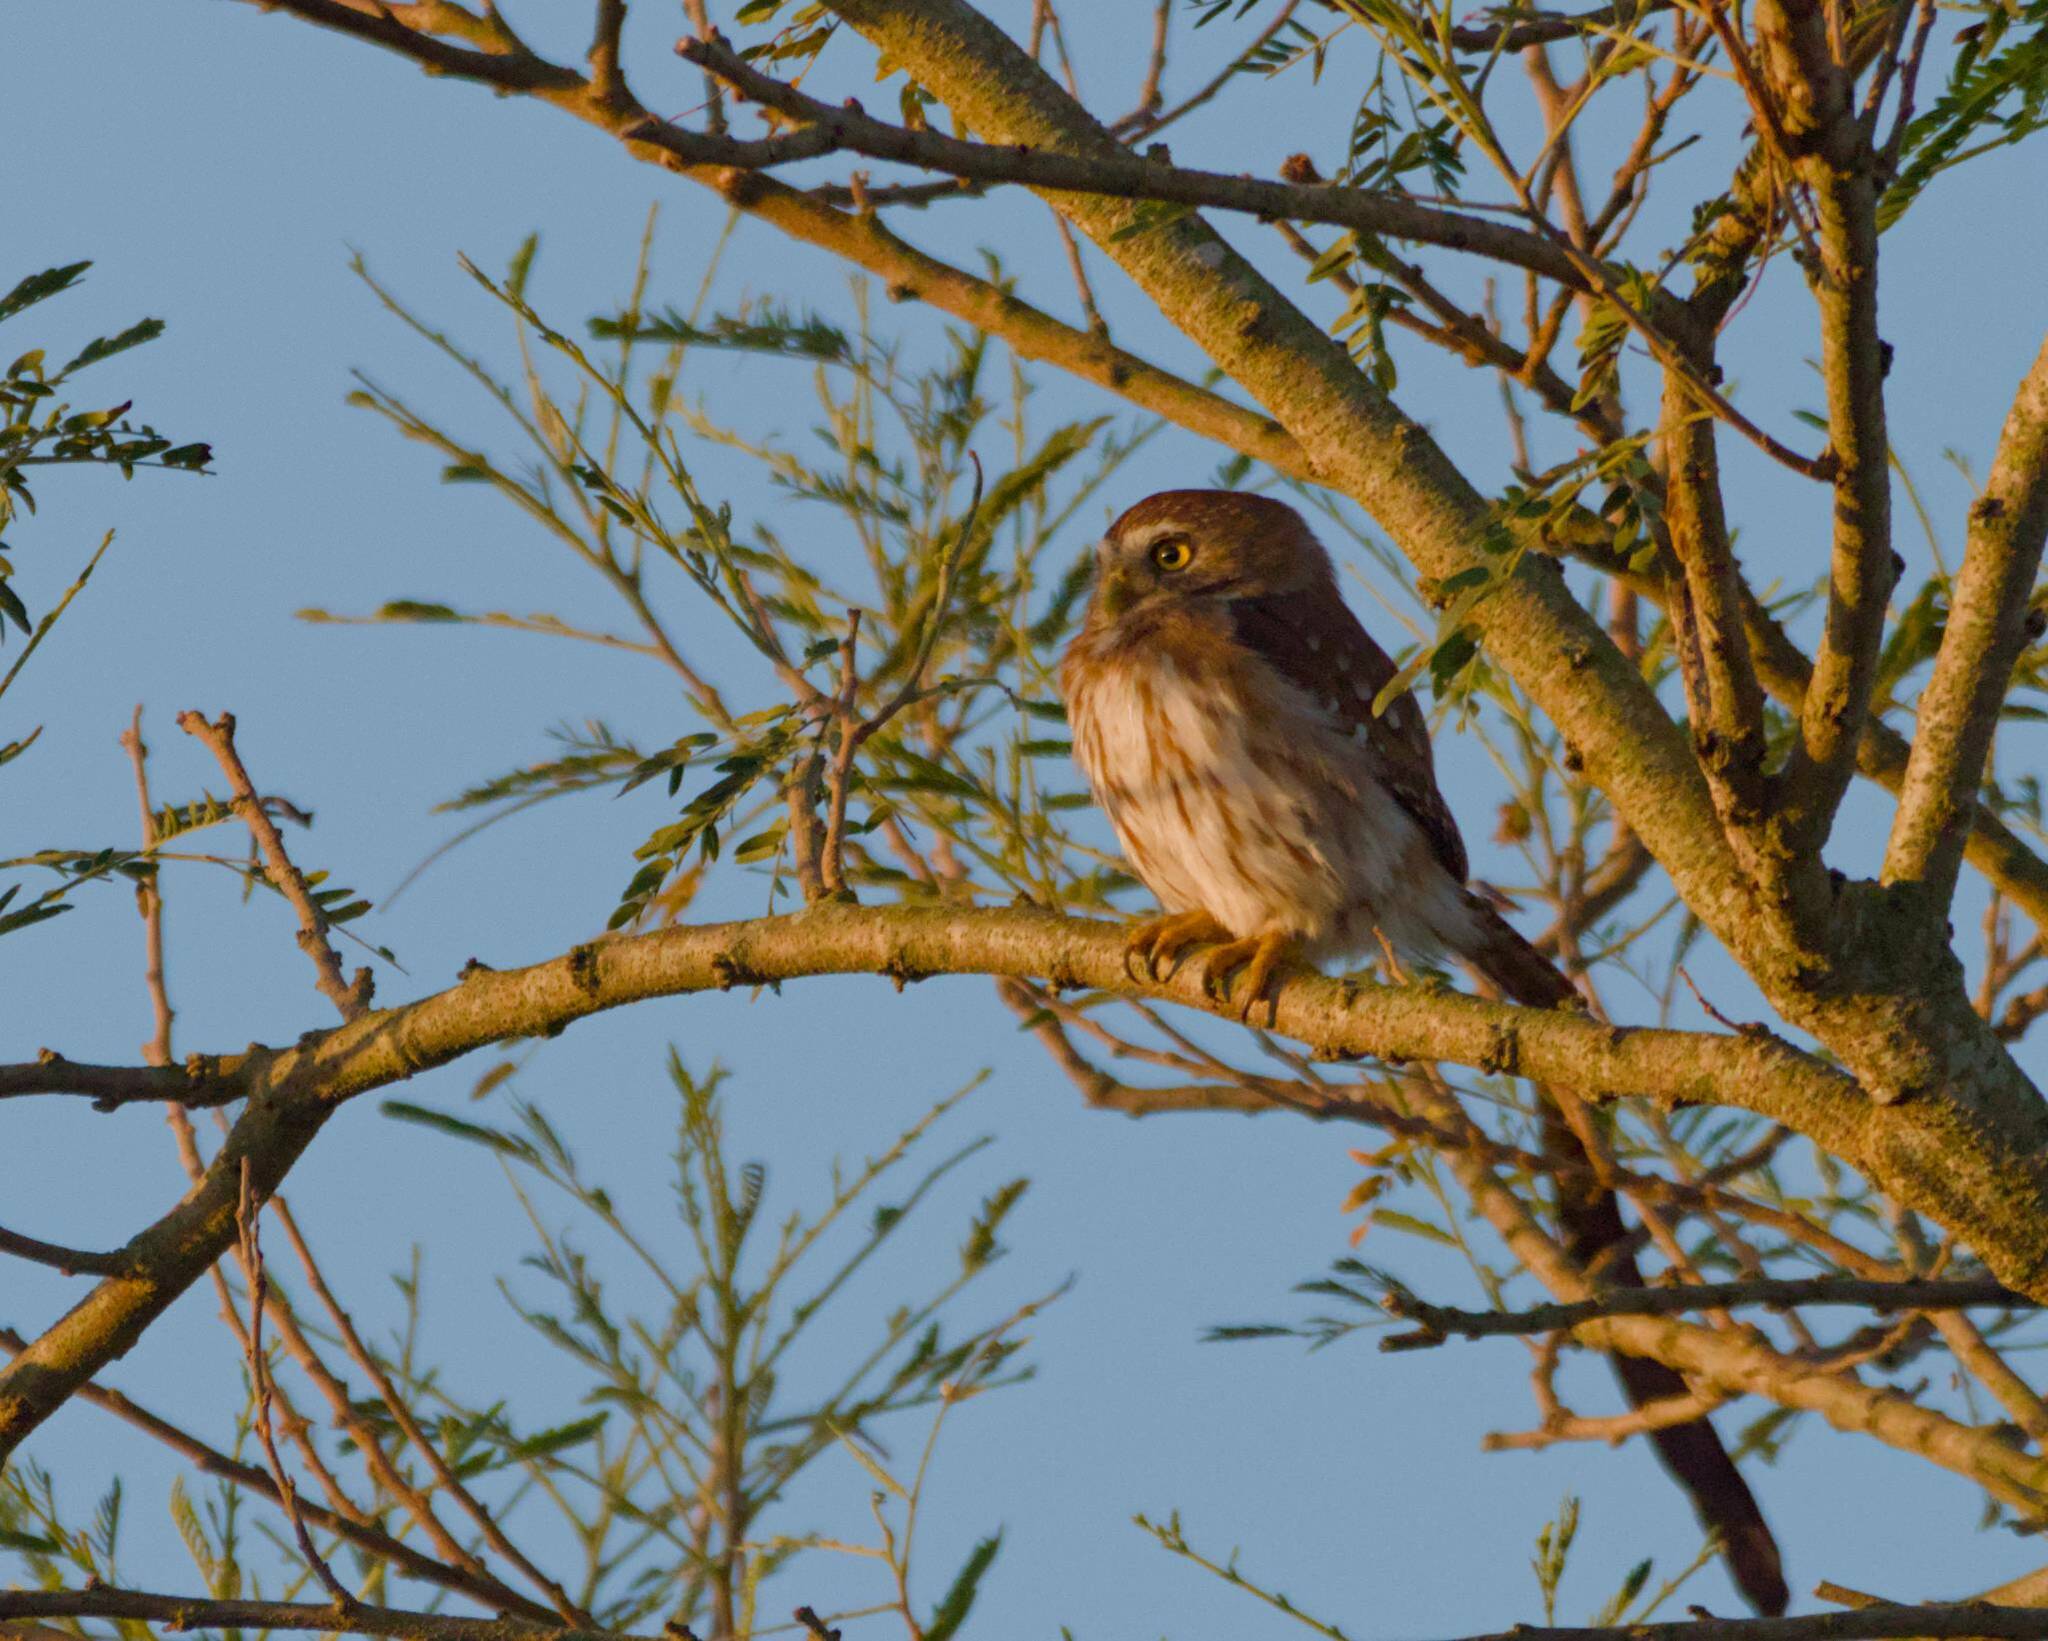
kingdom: Animalia
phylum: Chordata
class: Aves
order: Strigiformes
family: Strigidae
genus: Glaucidium
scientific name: Glaucidium brasilianum
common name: Ferruginous pygmy-owl
